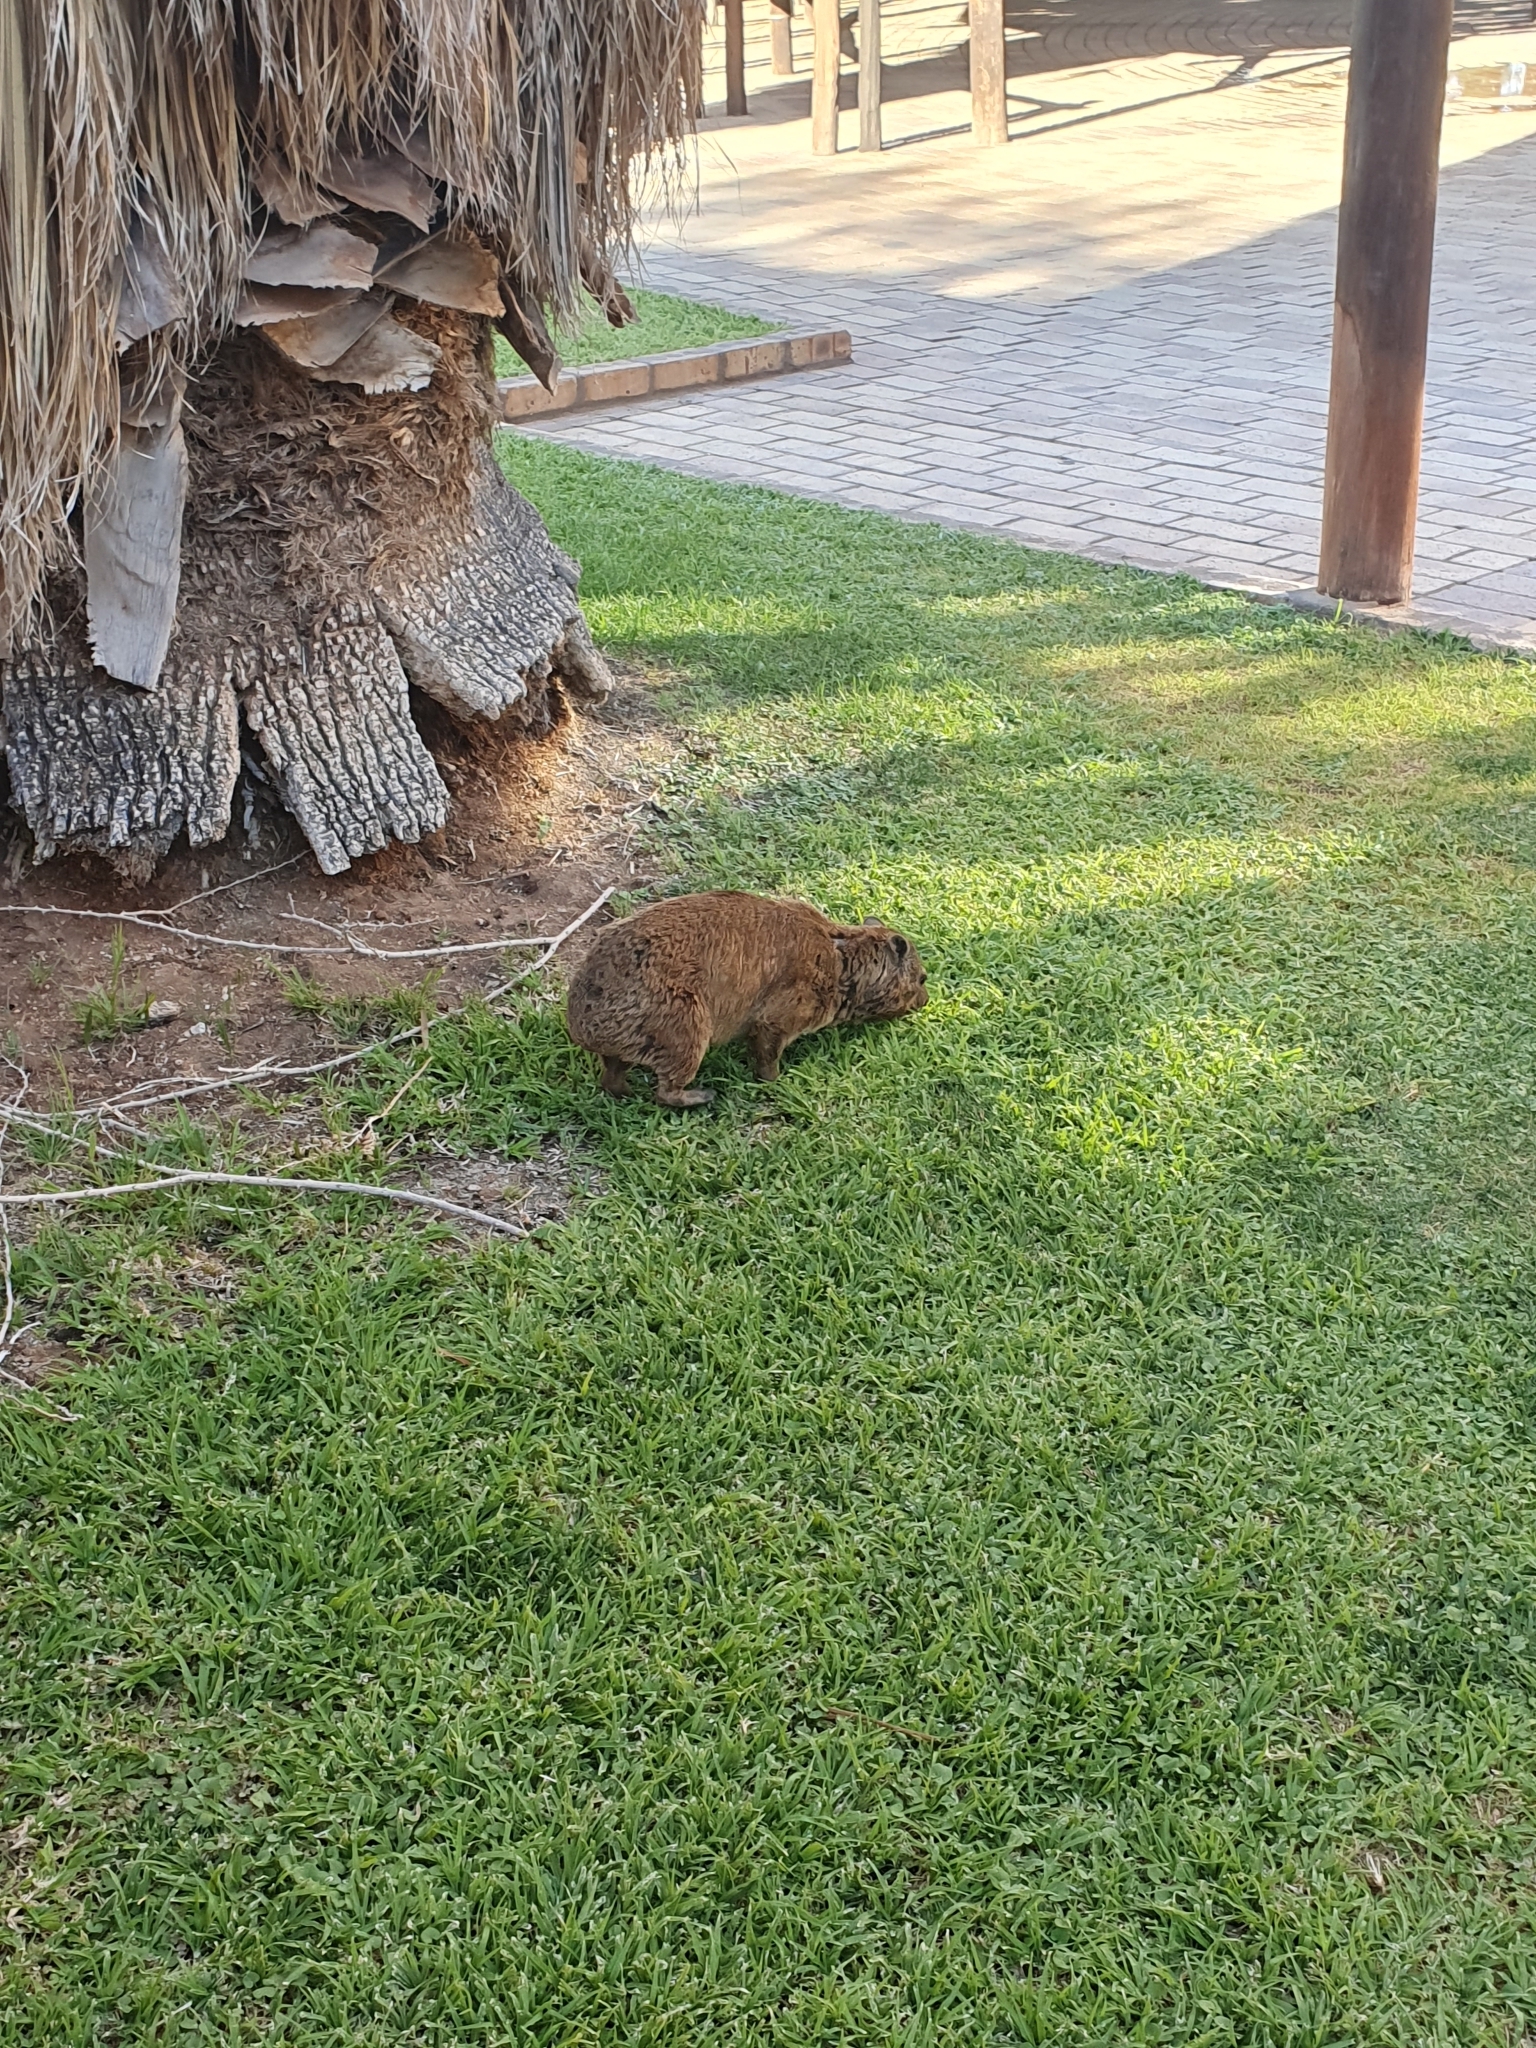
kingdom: Animalia
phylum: Chordata
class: Mammalia
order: Hyracoidea
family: Procaviidae
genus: Procavia
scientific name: Procavia capensis
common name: Rock hyrax
